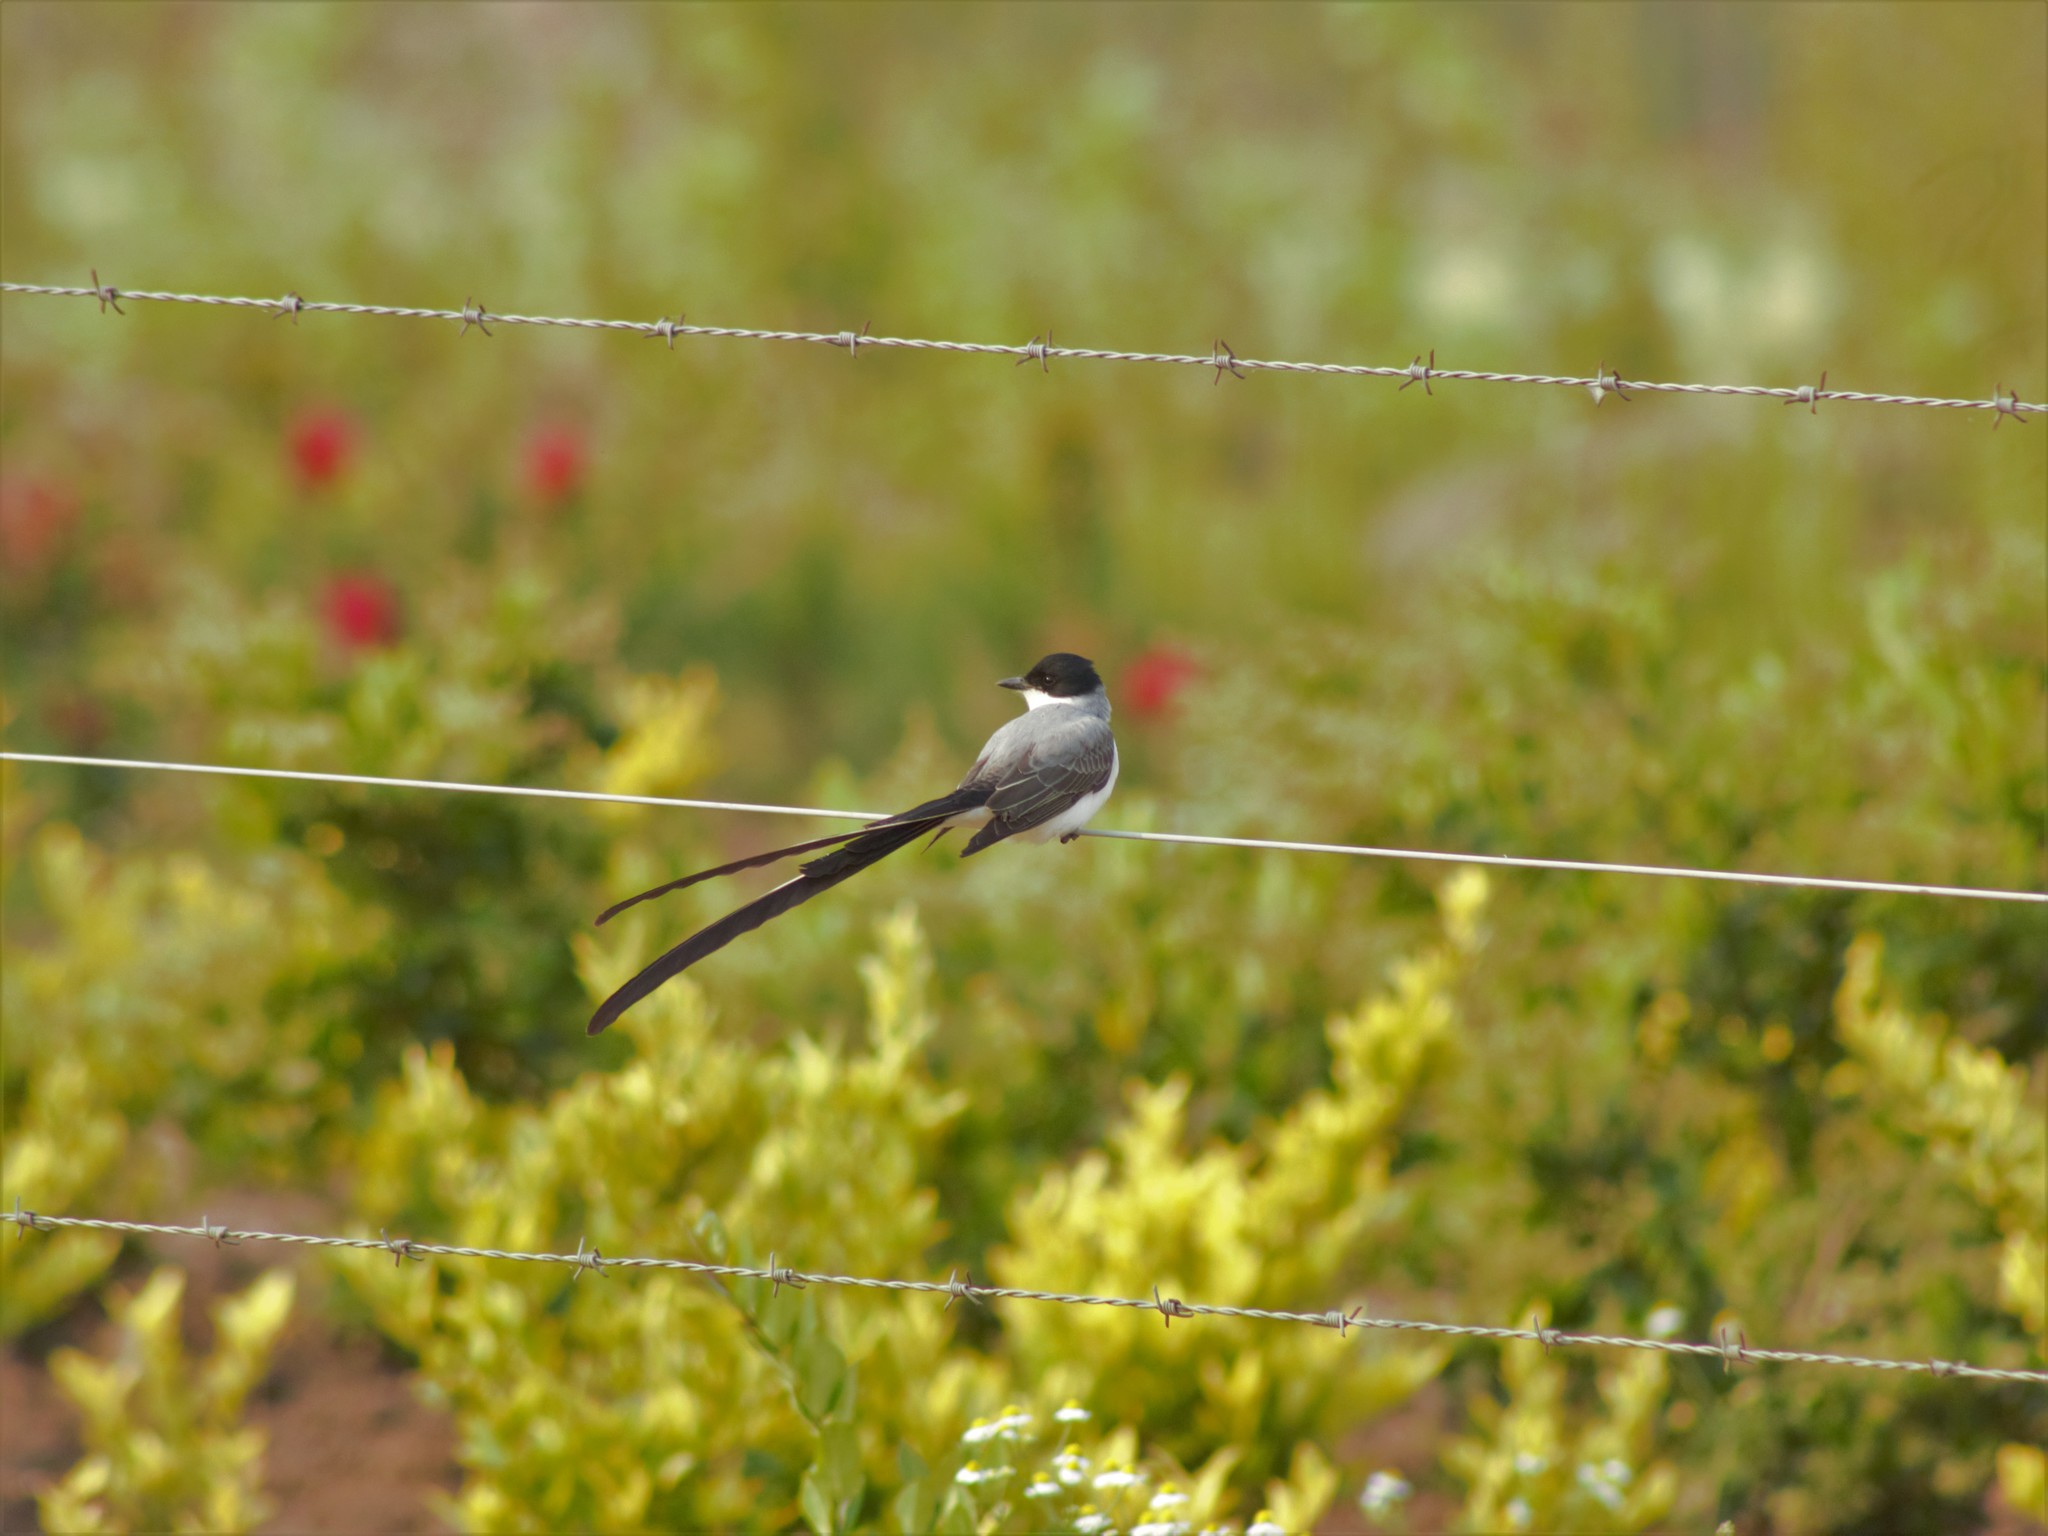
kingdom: Animalia
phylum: Chordata
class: Aves
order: Passeriformes
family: Tyrannidae
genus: Tyrannus
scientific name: Tyrannus savana
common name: Fork-tailed flycatcher
